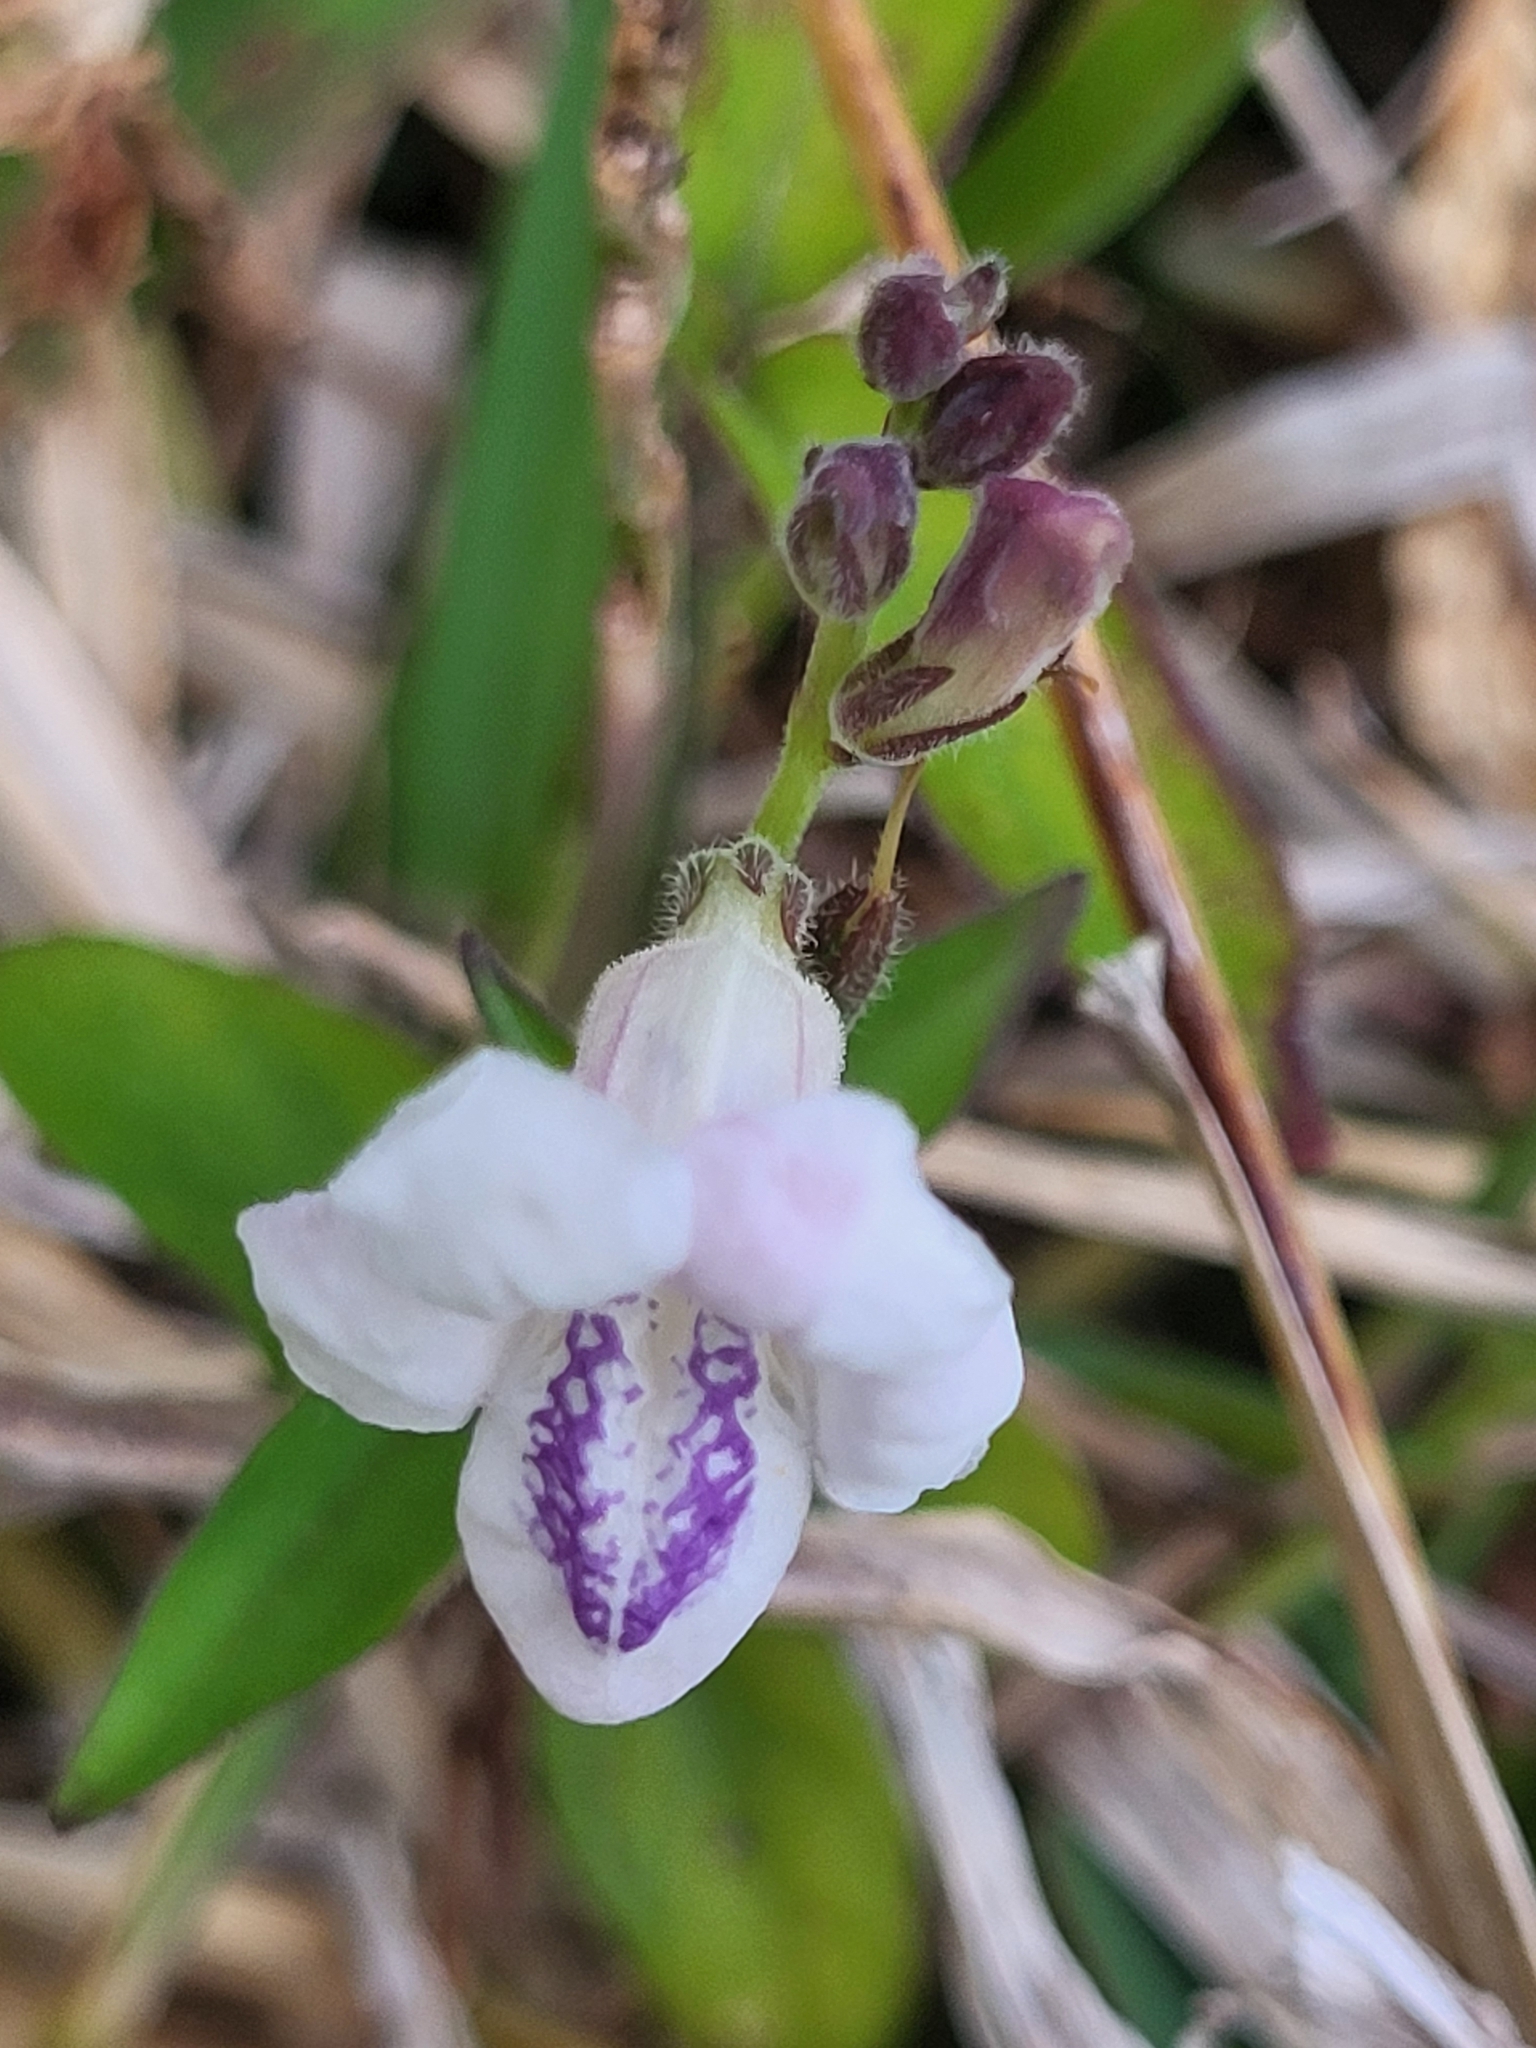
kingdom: Plantae
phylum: Tracheophyta
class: Magnoliopsida
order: Lamiales
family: Acanthaceae
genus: Asystasia
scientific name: Asystasia intrusa
